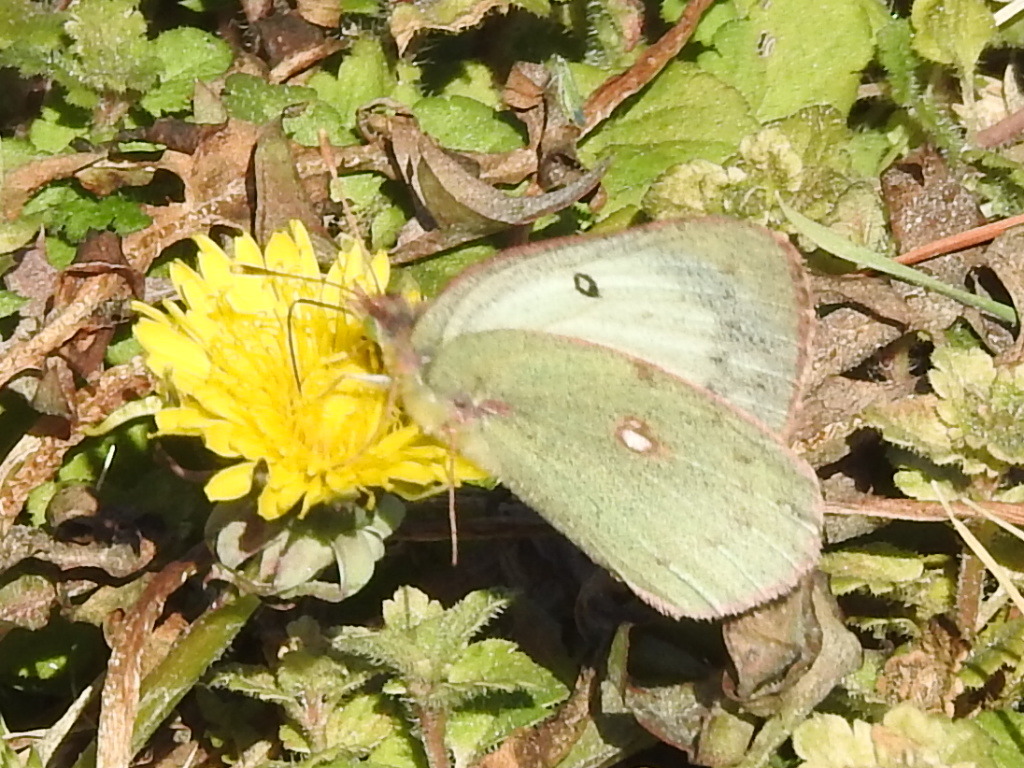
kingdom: Animalia
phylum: Arthropoda
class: Insecta
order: Lepidoptera
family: Pieridae
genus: Colias
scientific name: Colias eurytheme
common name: Alfalfa butterfly
